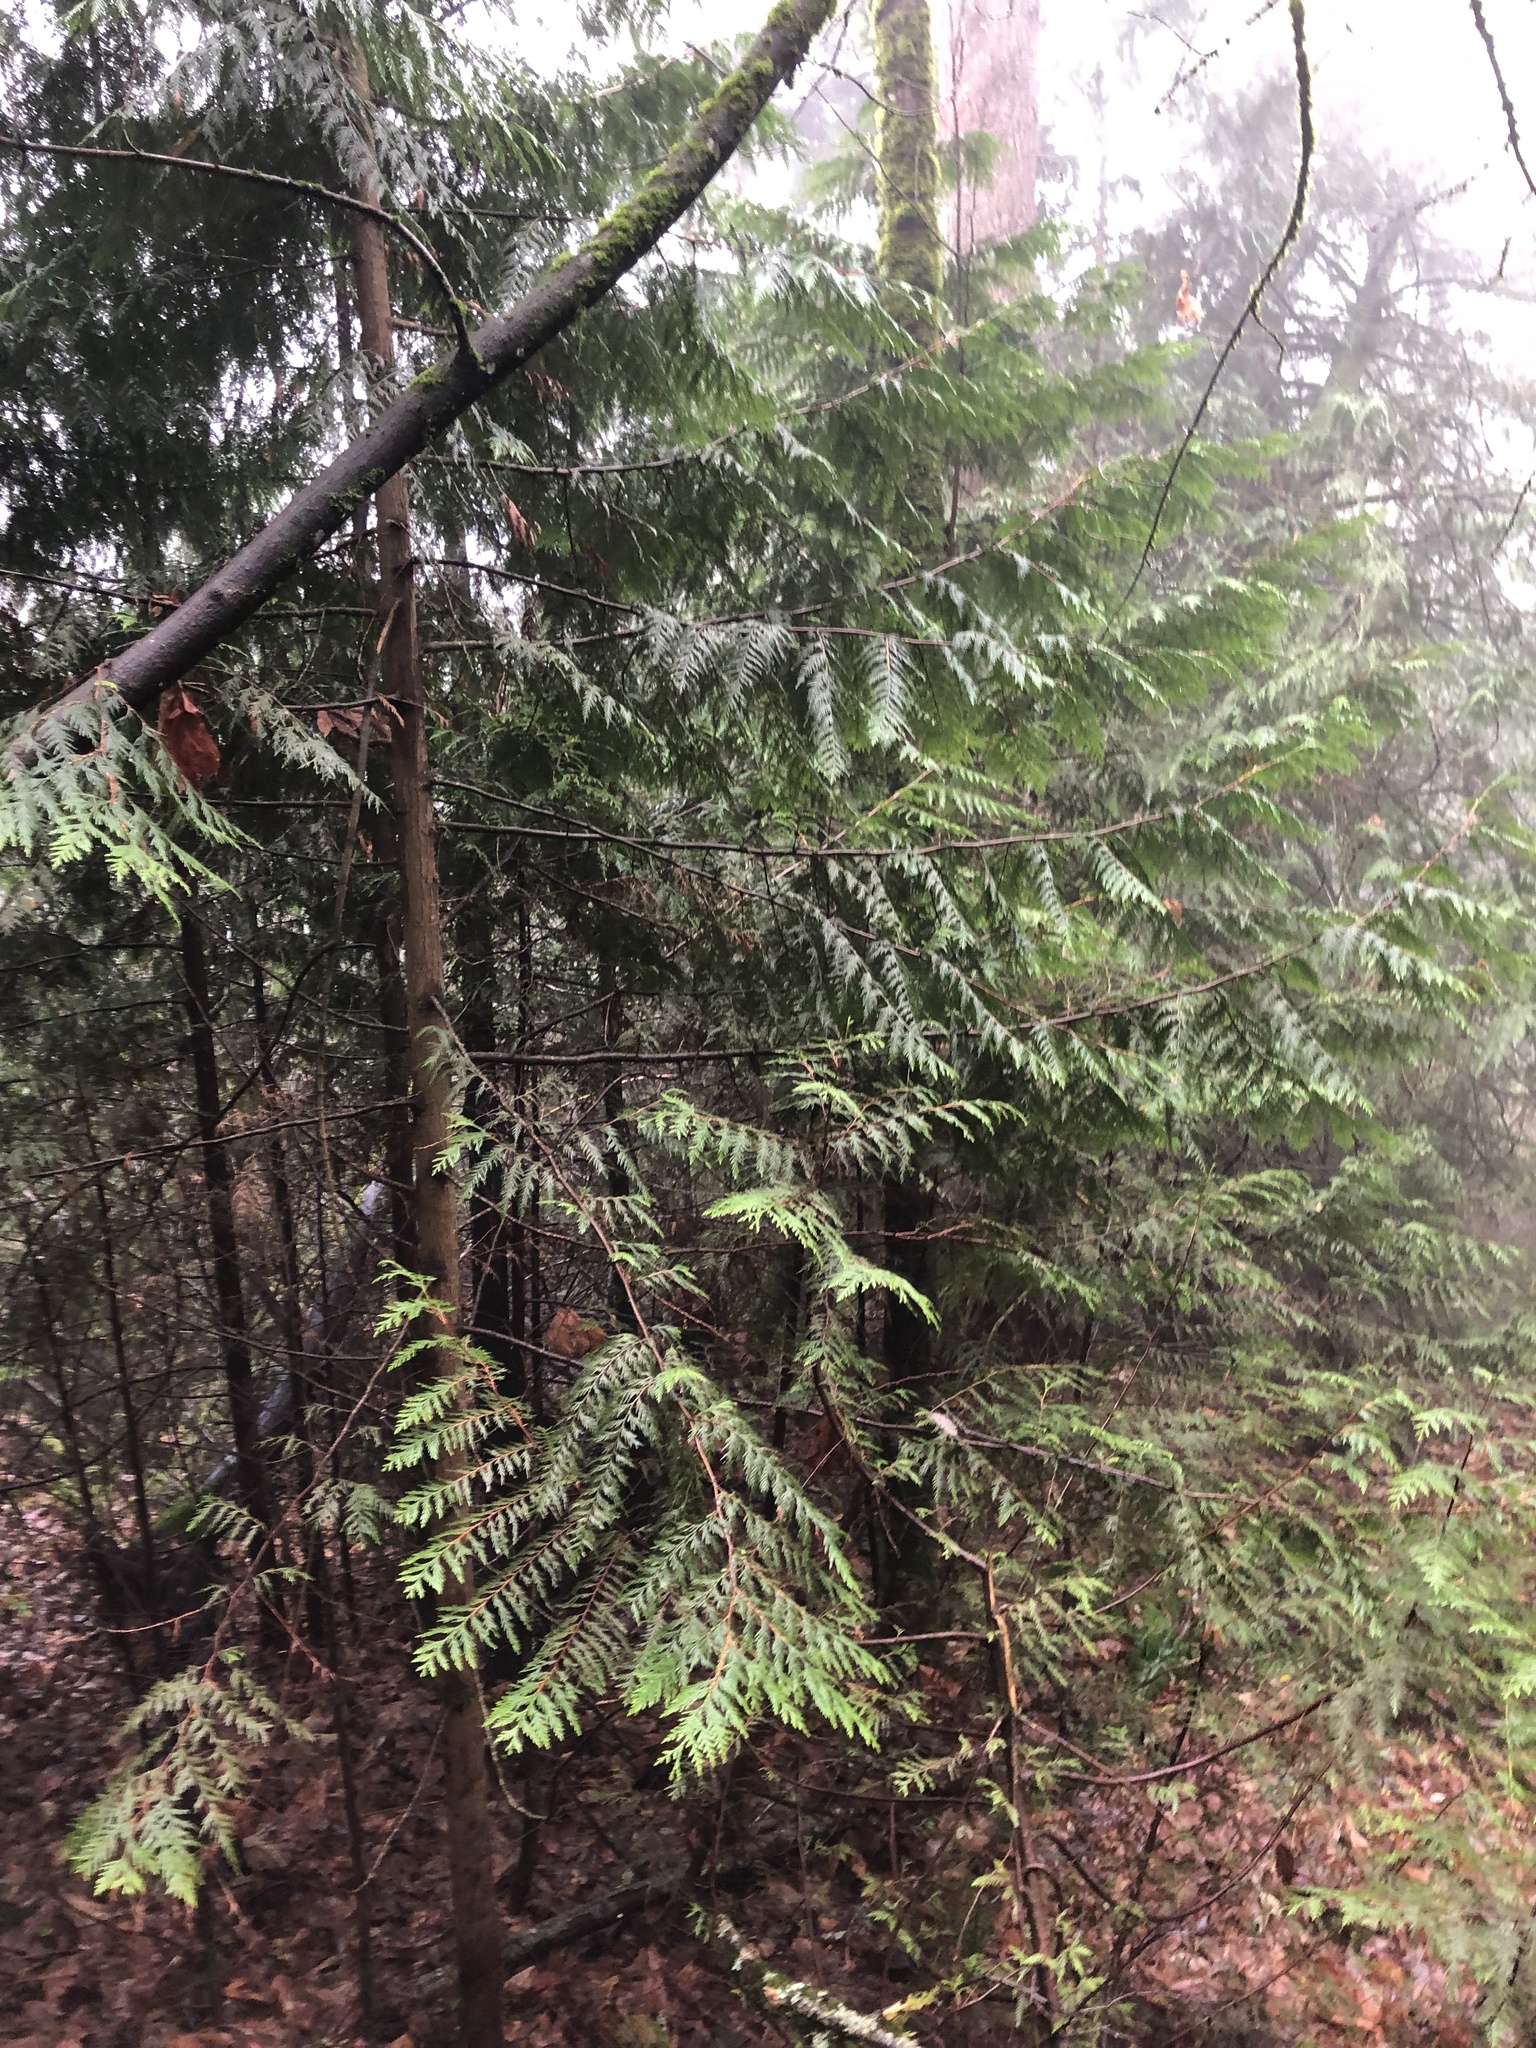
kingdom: Plantae
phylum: Tracheophyta
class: Pinopsida
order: Pinales
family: Cupressaceae
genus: Thuja
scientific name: Thuja plicata
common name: Western red-cedar
